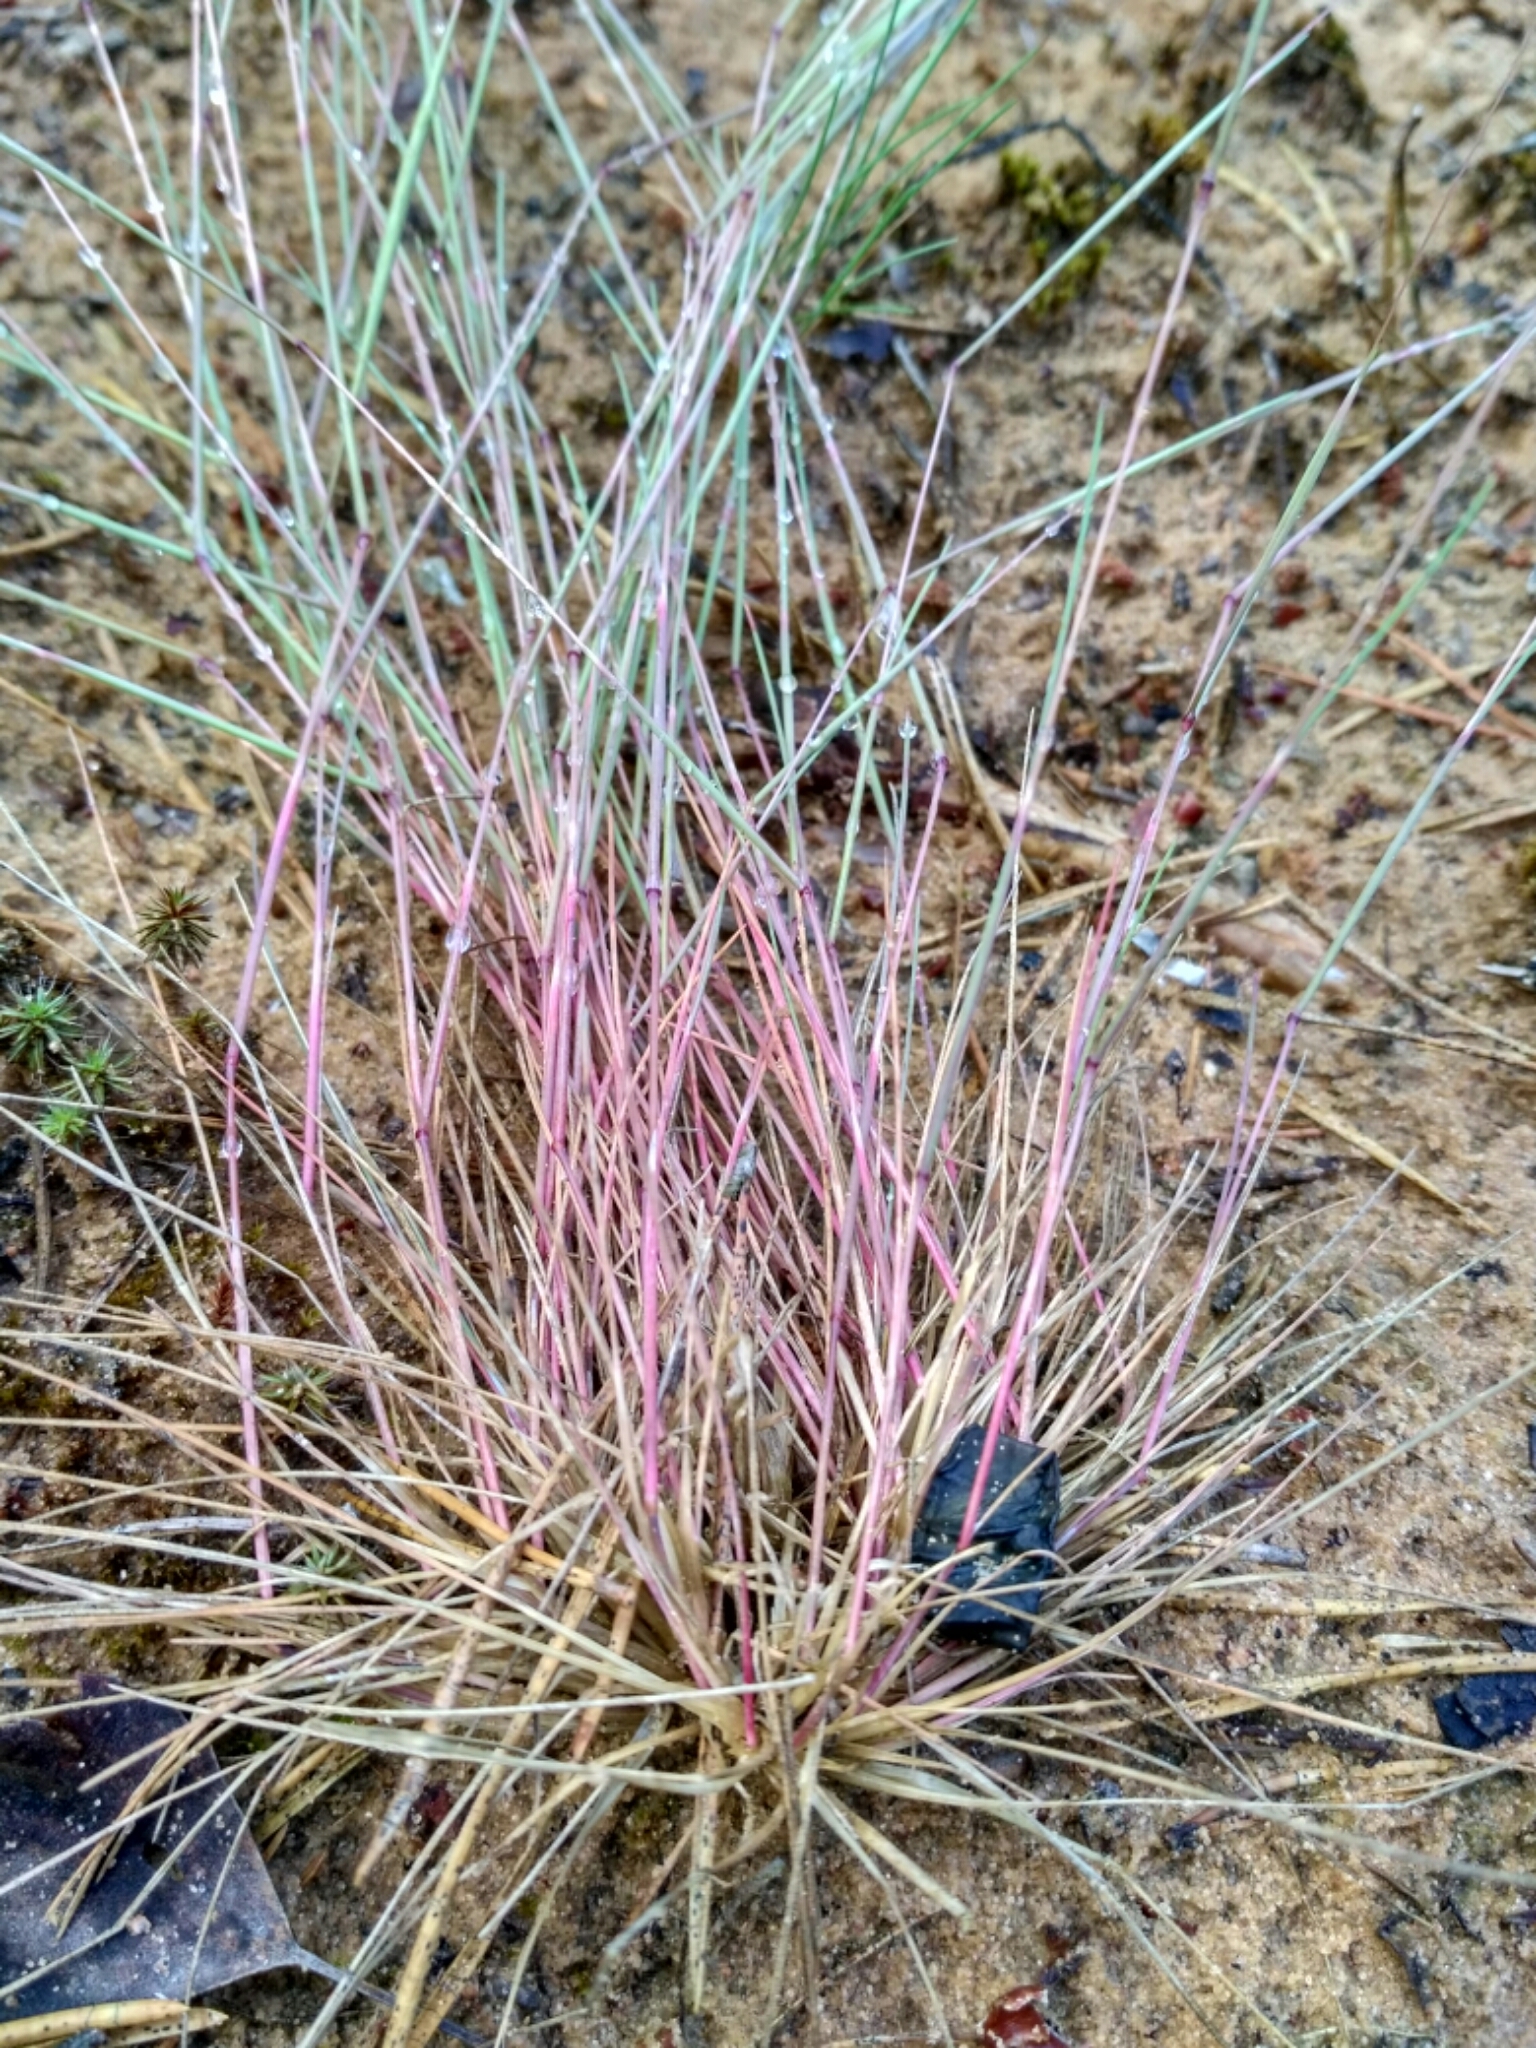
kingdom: Plantae
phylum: Tracheophyta
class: Liliopsida
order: Poales
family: Poaceae
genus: Corynephorus
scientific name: Corynephorus canescens
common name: Grey hair-grass
